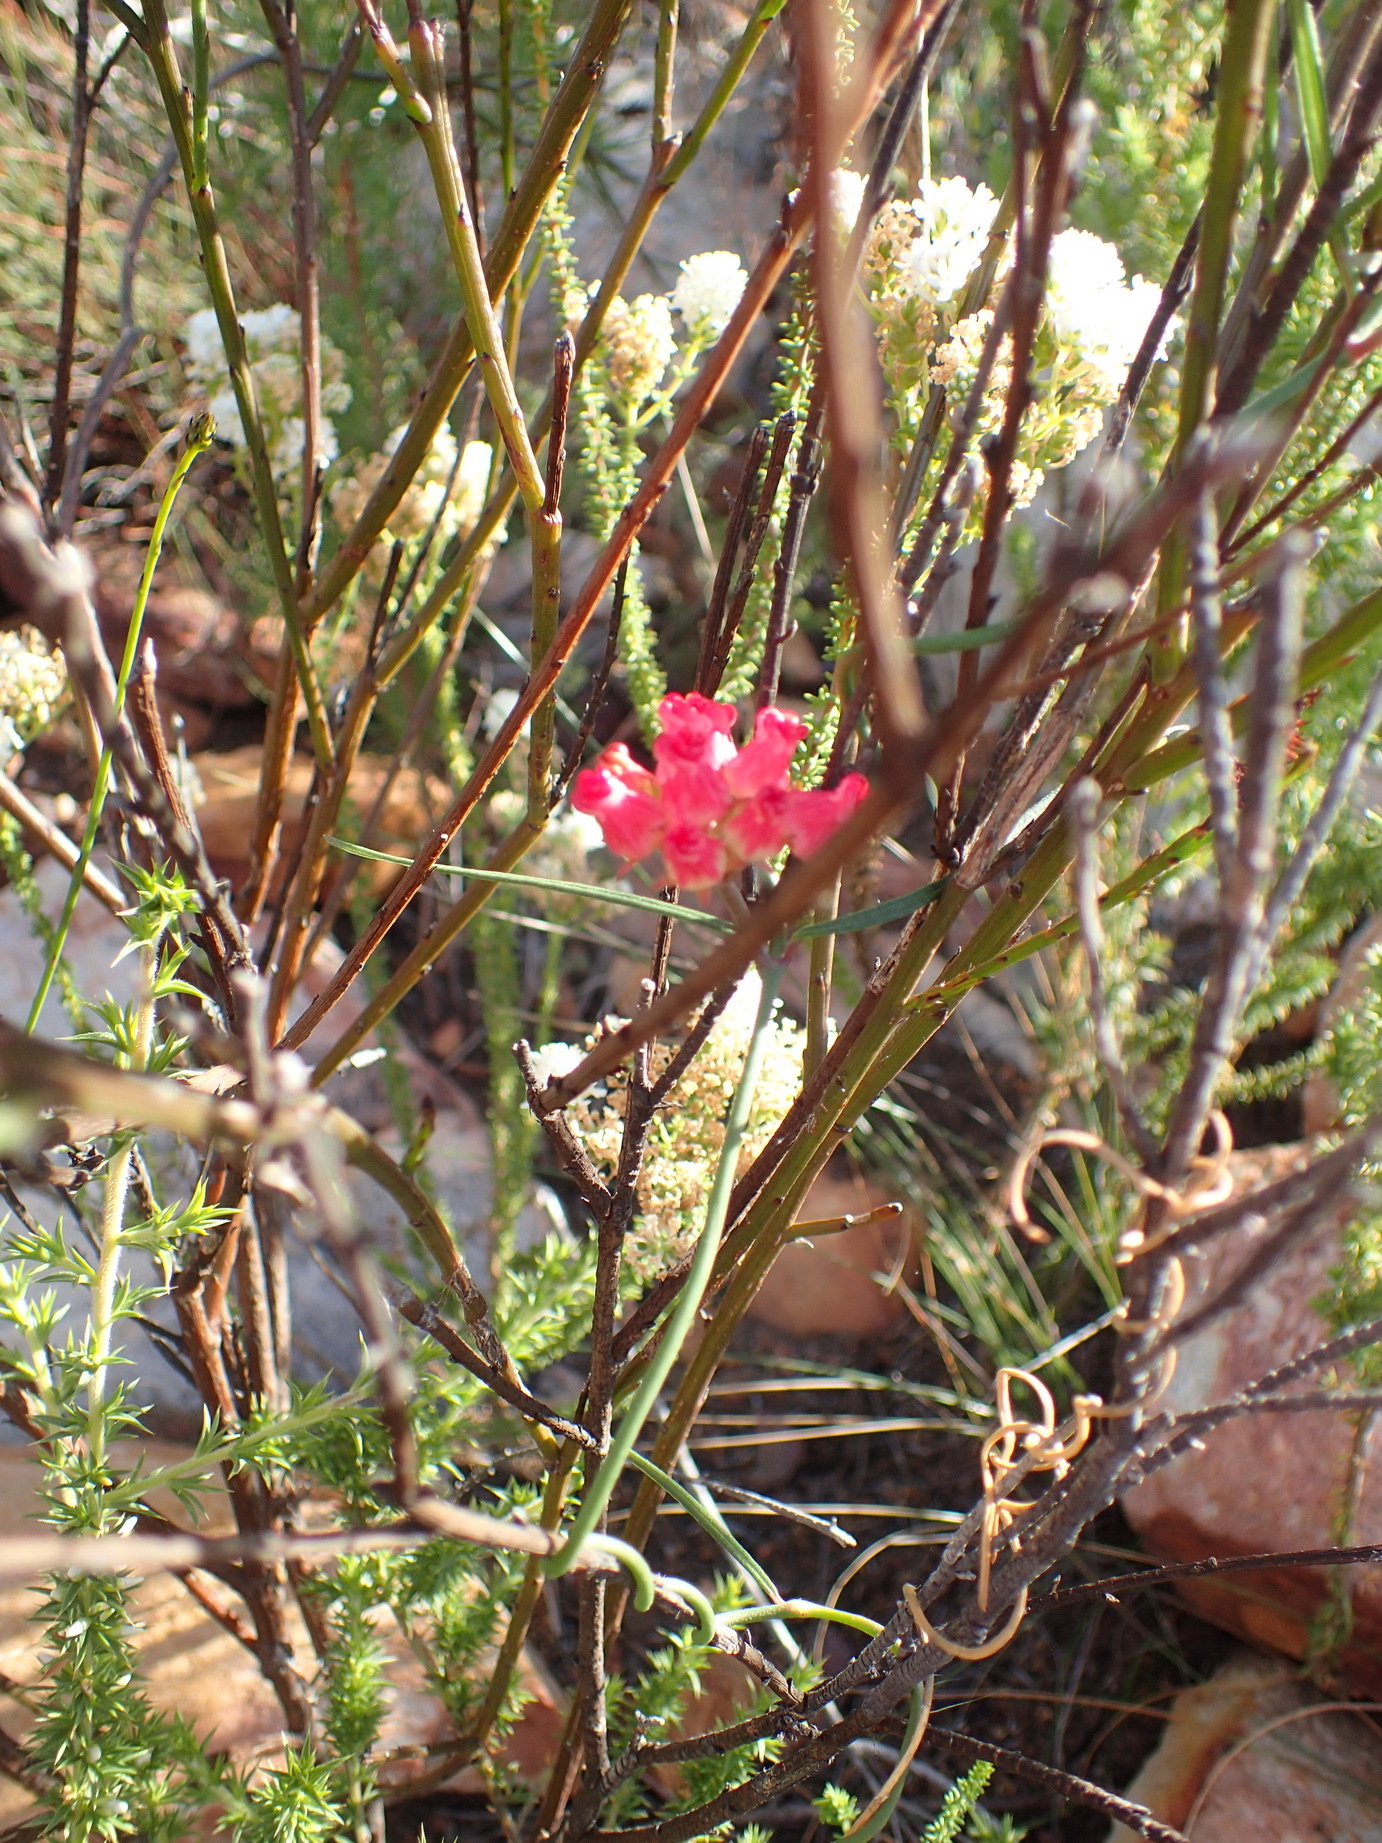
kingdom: Plantae
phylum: Tracheophyta
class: Magnoliopsida
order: Gentianales
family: Apocynaceae
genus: Microloma
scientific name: Microloma tenuifolium
